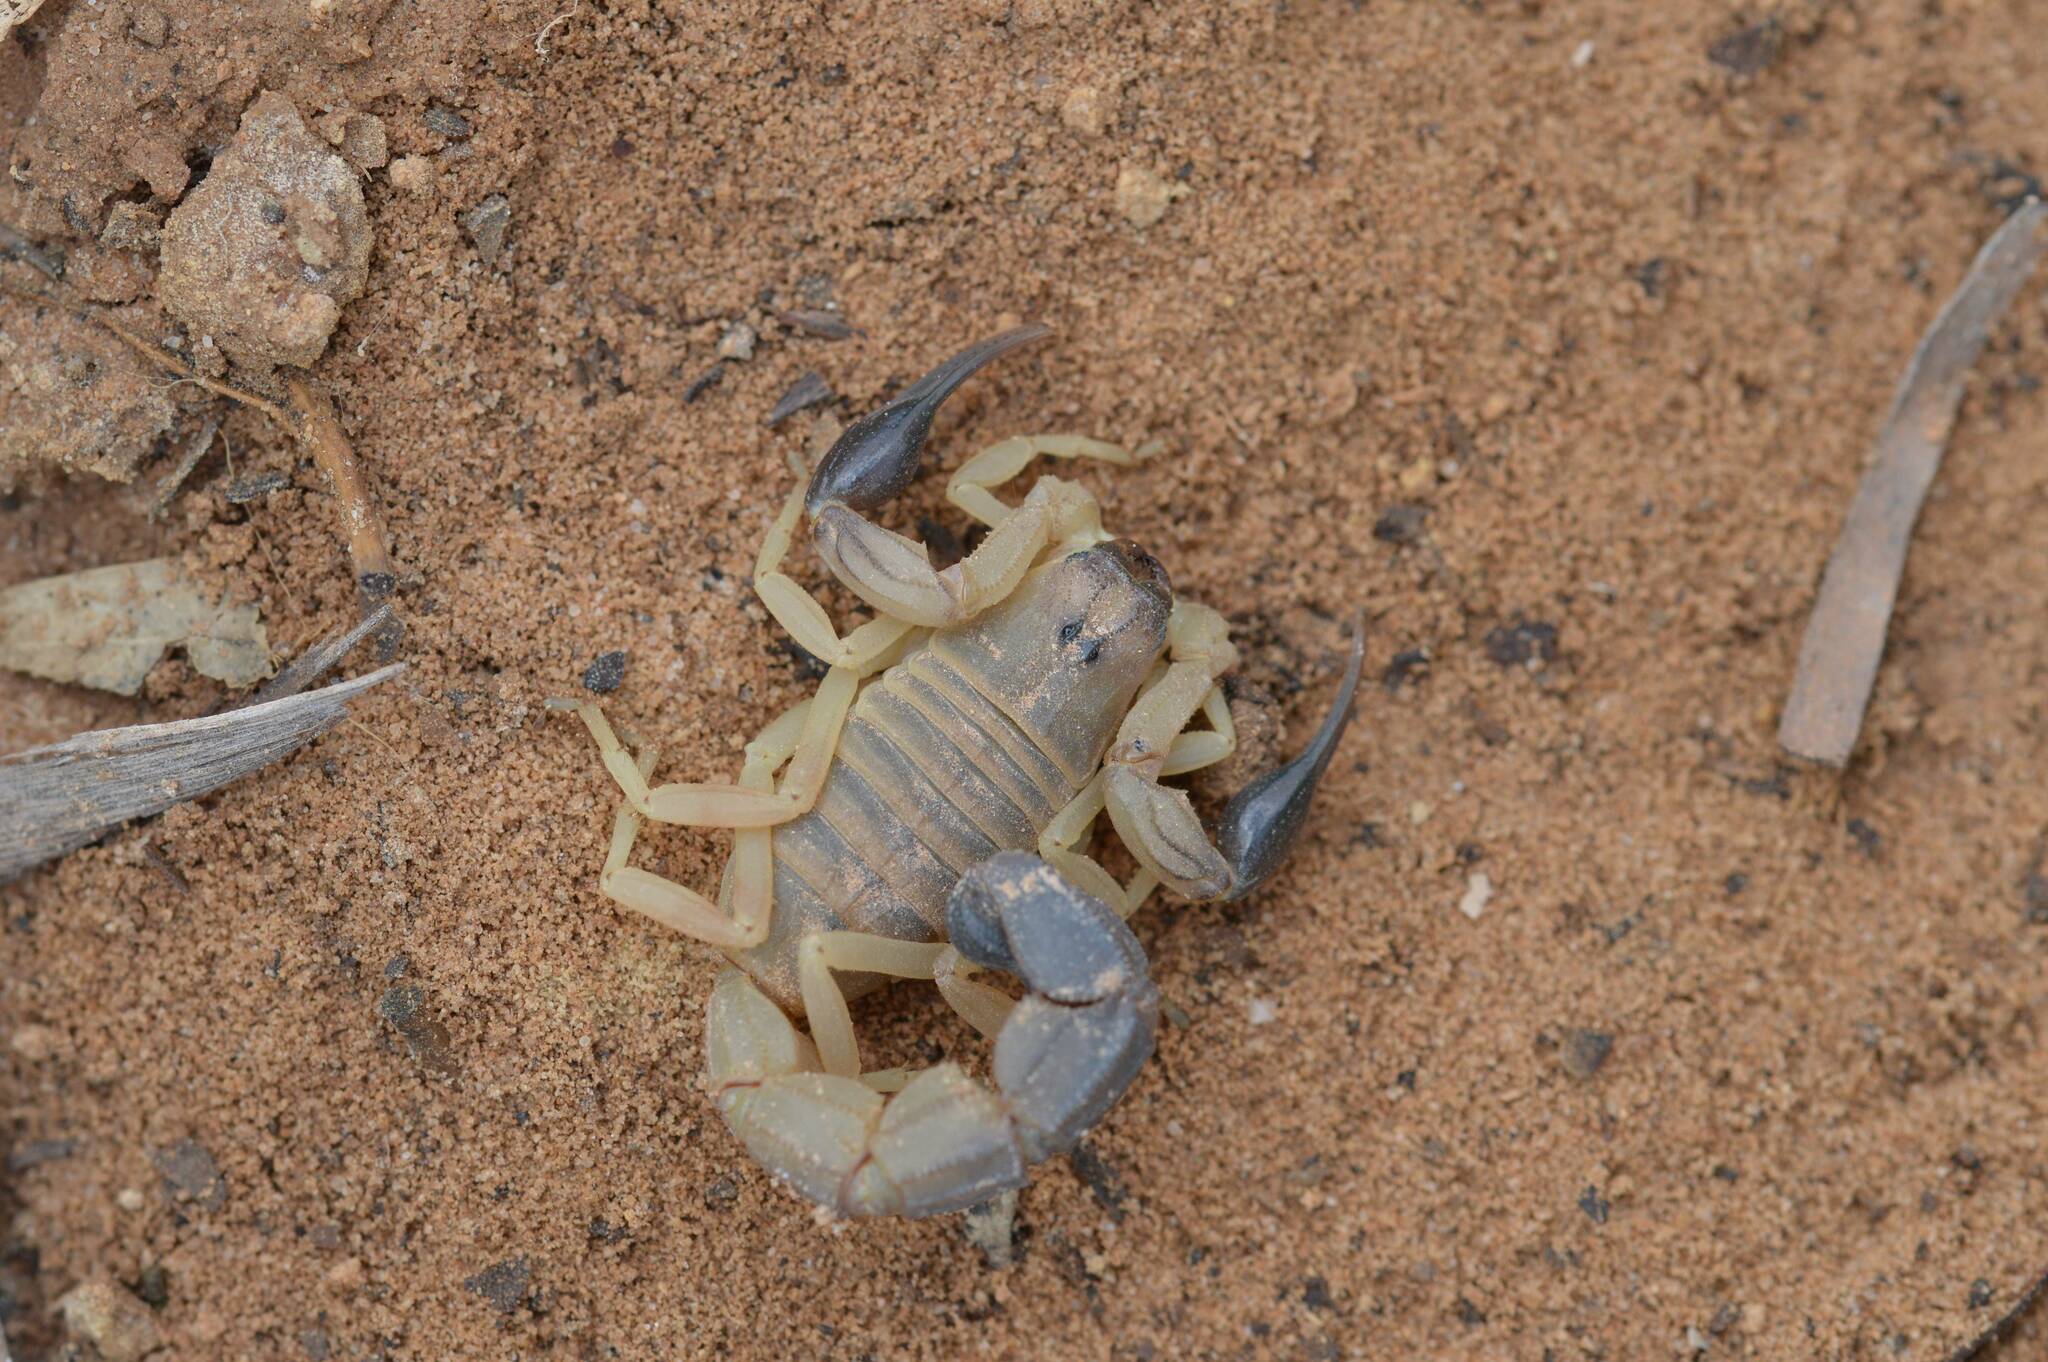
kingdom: Animalia
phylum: Arthropoda
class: Arachnida
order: Scorpiones
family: Buthidae
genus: Androctonus
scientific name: Androctonus australis
